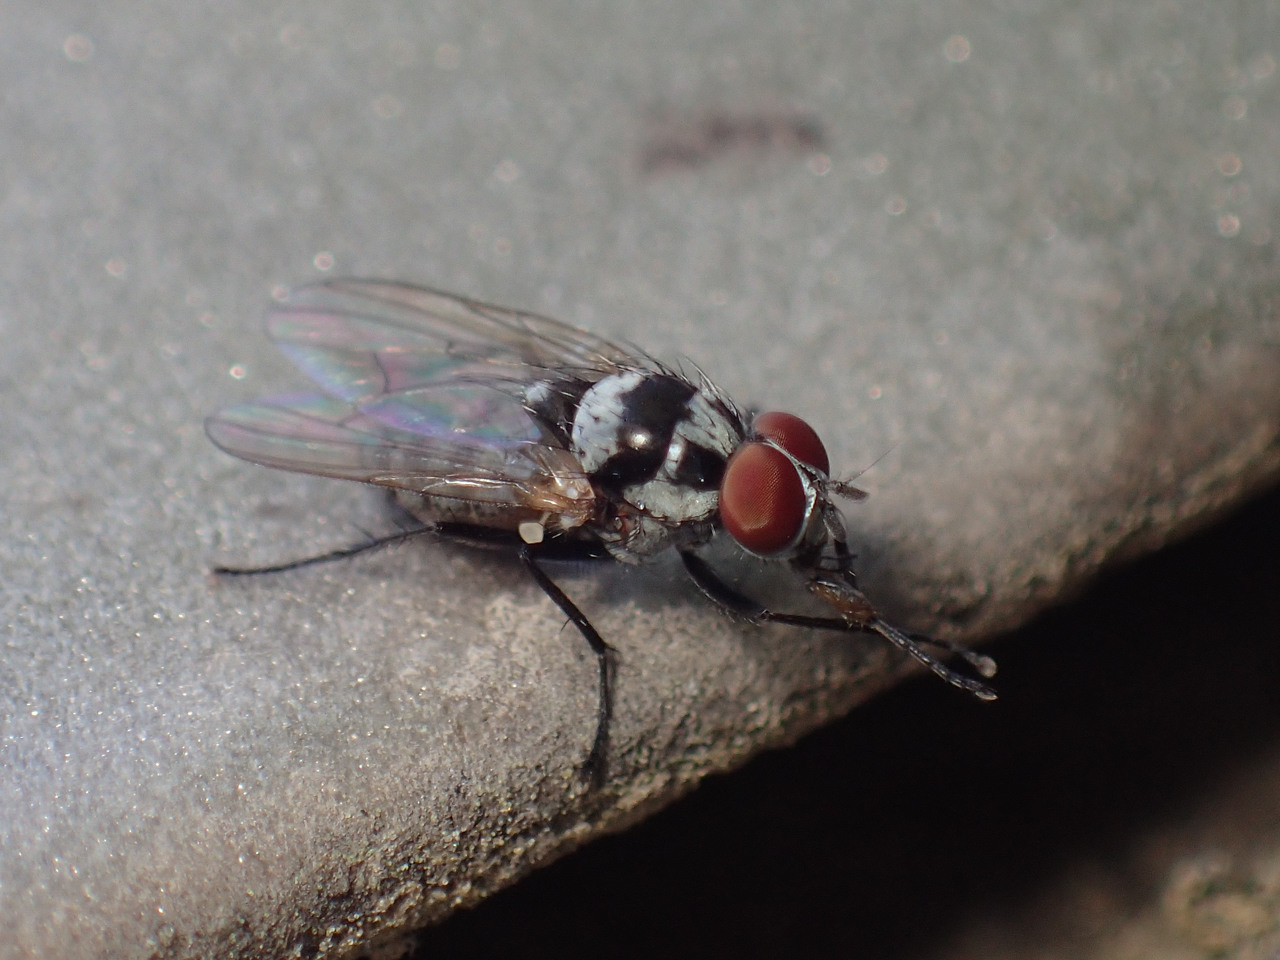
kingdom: Animalia
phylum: Arthropoda
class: Insecta
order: Diptera
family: Anthomyiidae
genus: Anthomyia
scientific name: Anthomyia oculifera
